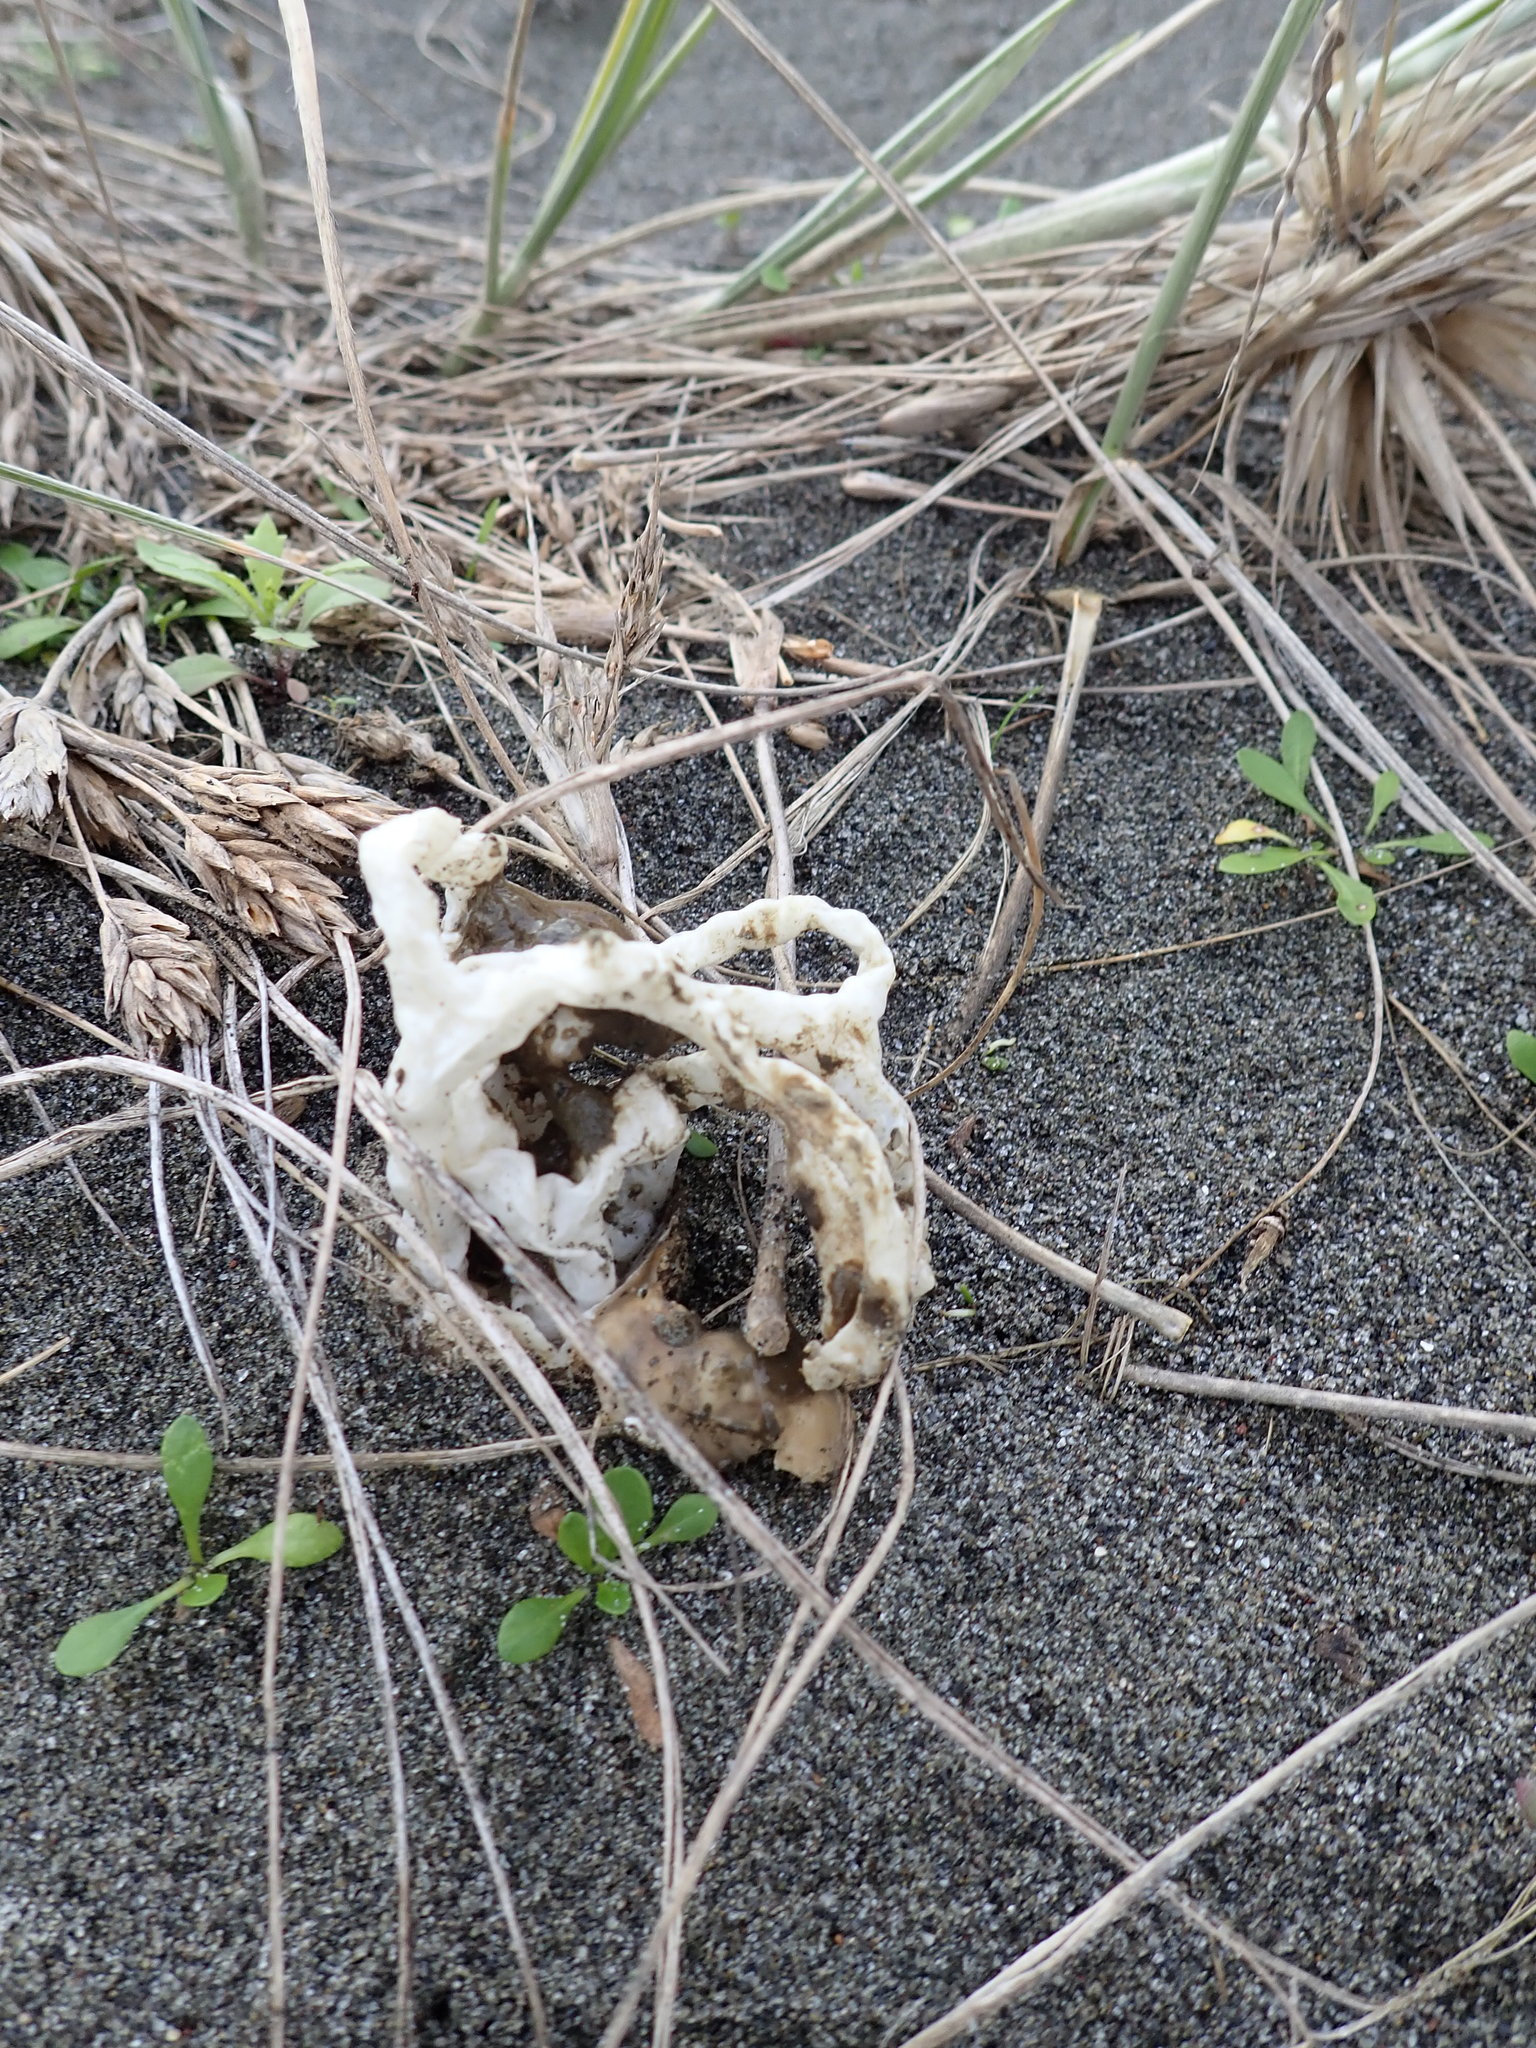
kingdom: Fungi
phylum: Basidiomycota
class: Agaricomycetes
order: Phallales
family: Phallaceae
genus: Ileodictyon
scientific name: Ileodictyon cibarium
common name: Basket fungus
